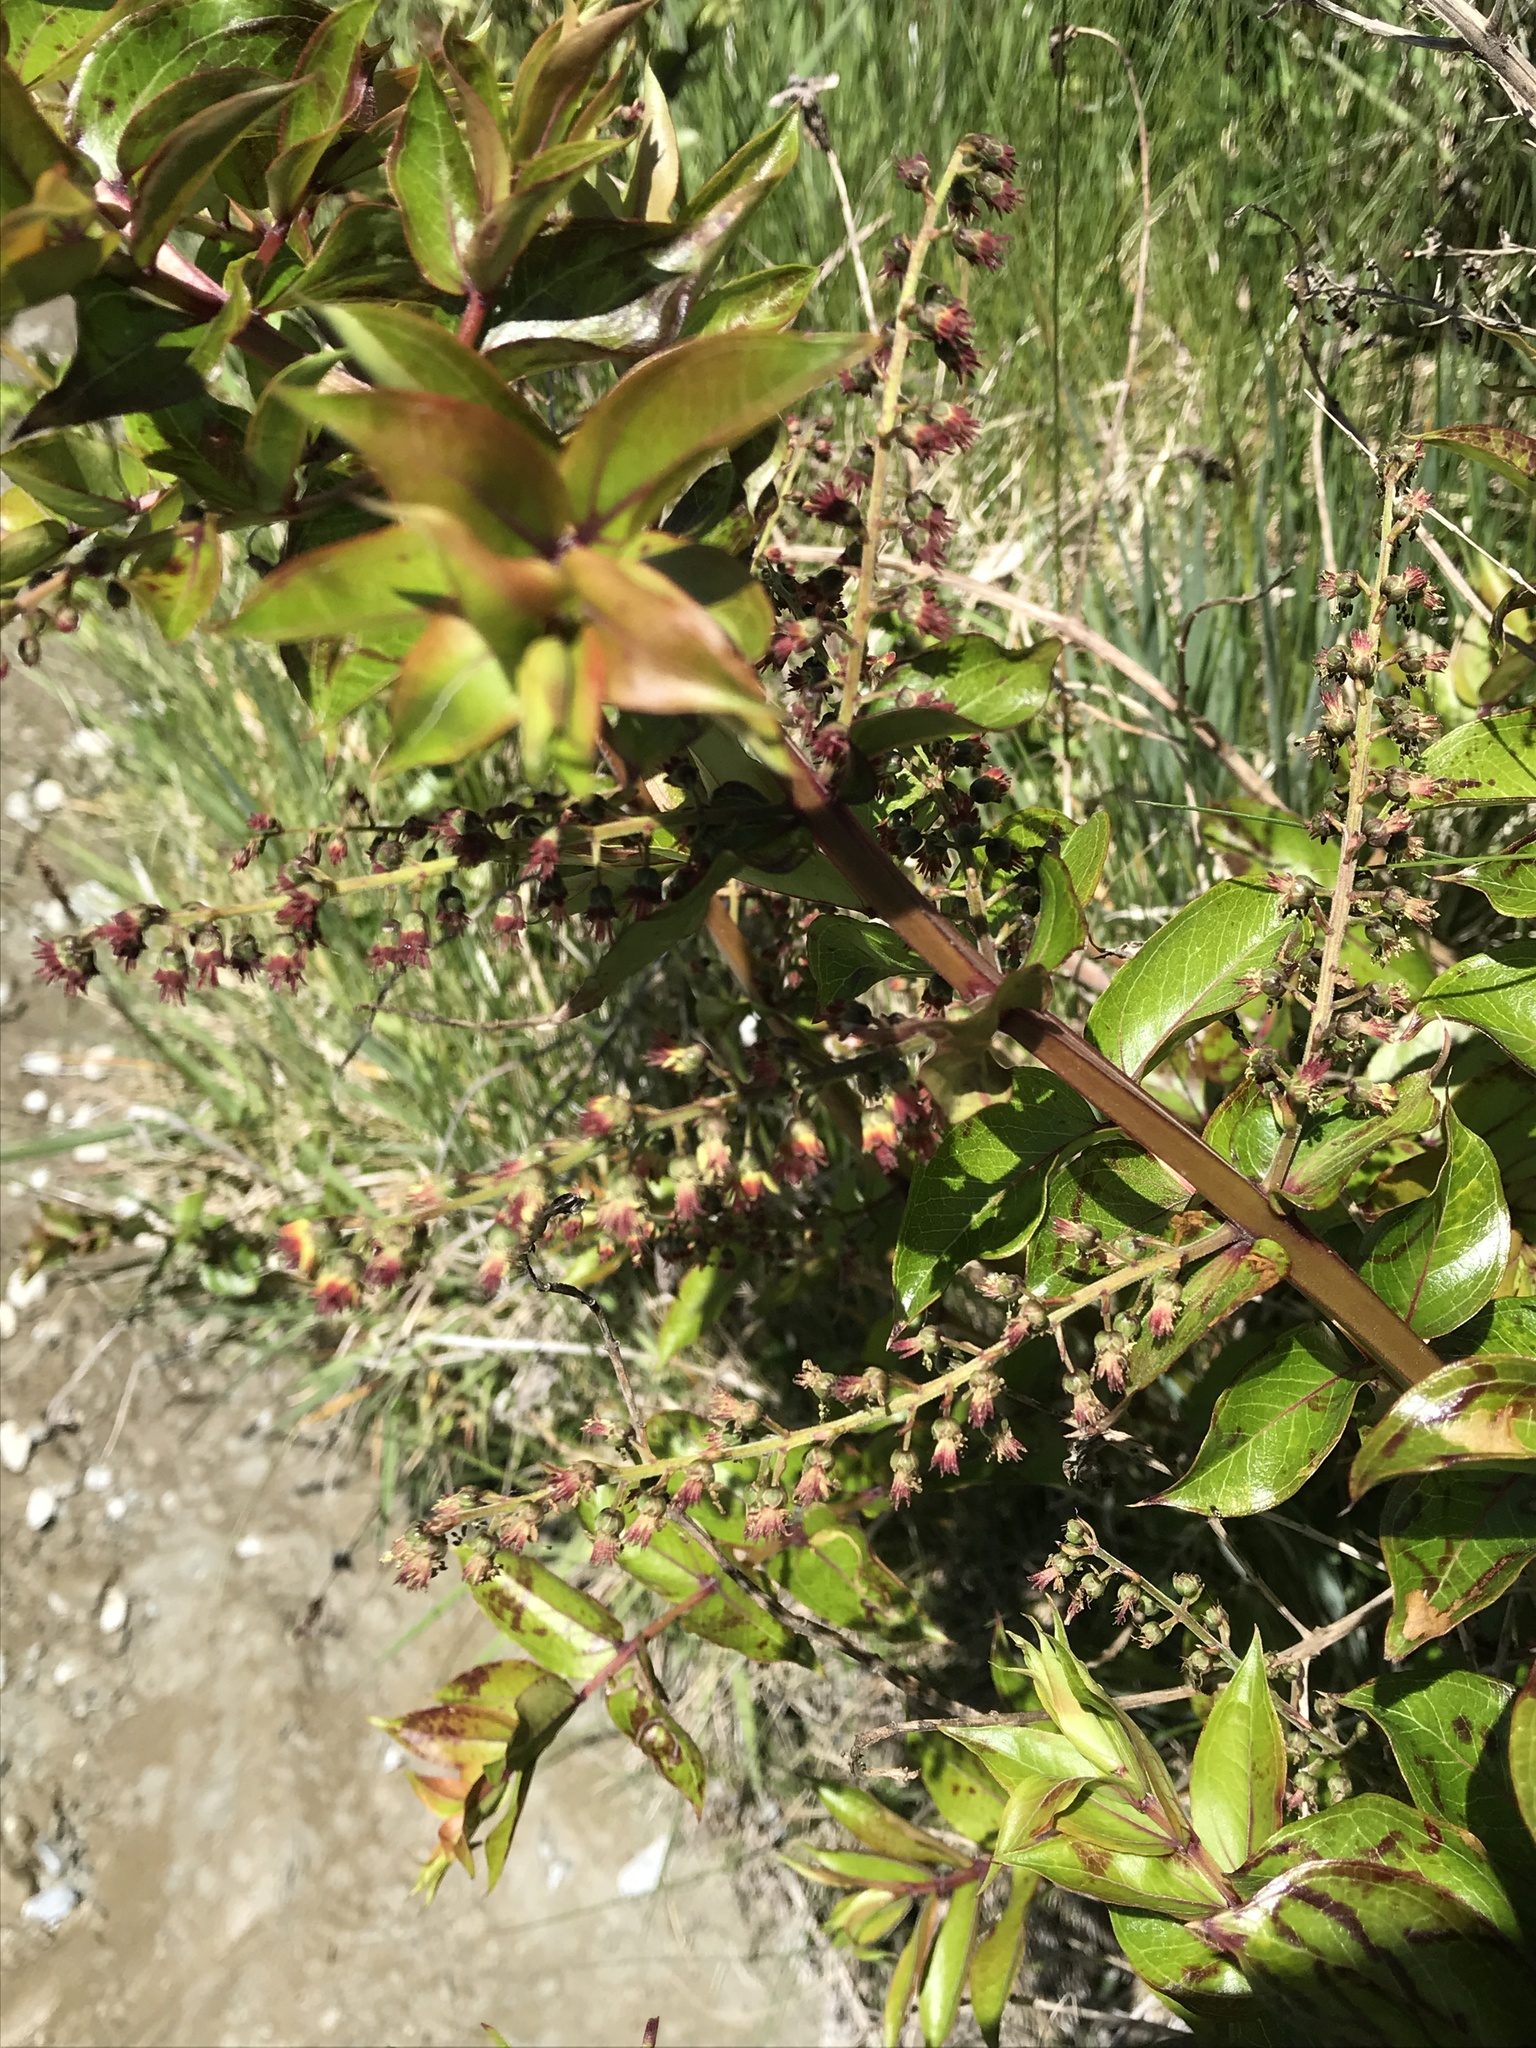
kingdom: Plantae
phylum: Tracheophyta
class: Magnoliopsida
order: Cucurbitales
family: Coriariaceae
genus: Coriaria
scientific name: Coriaria sarmentosa
